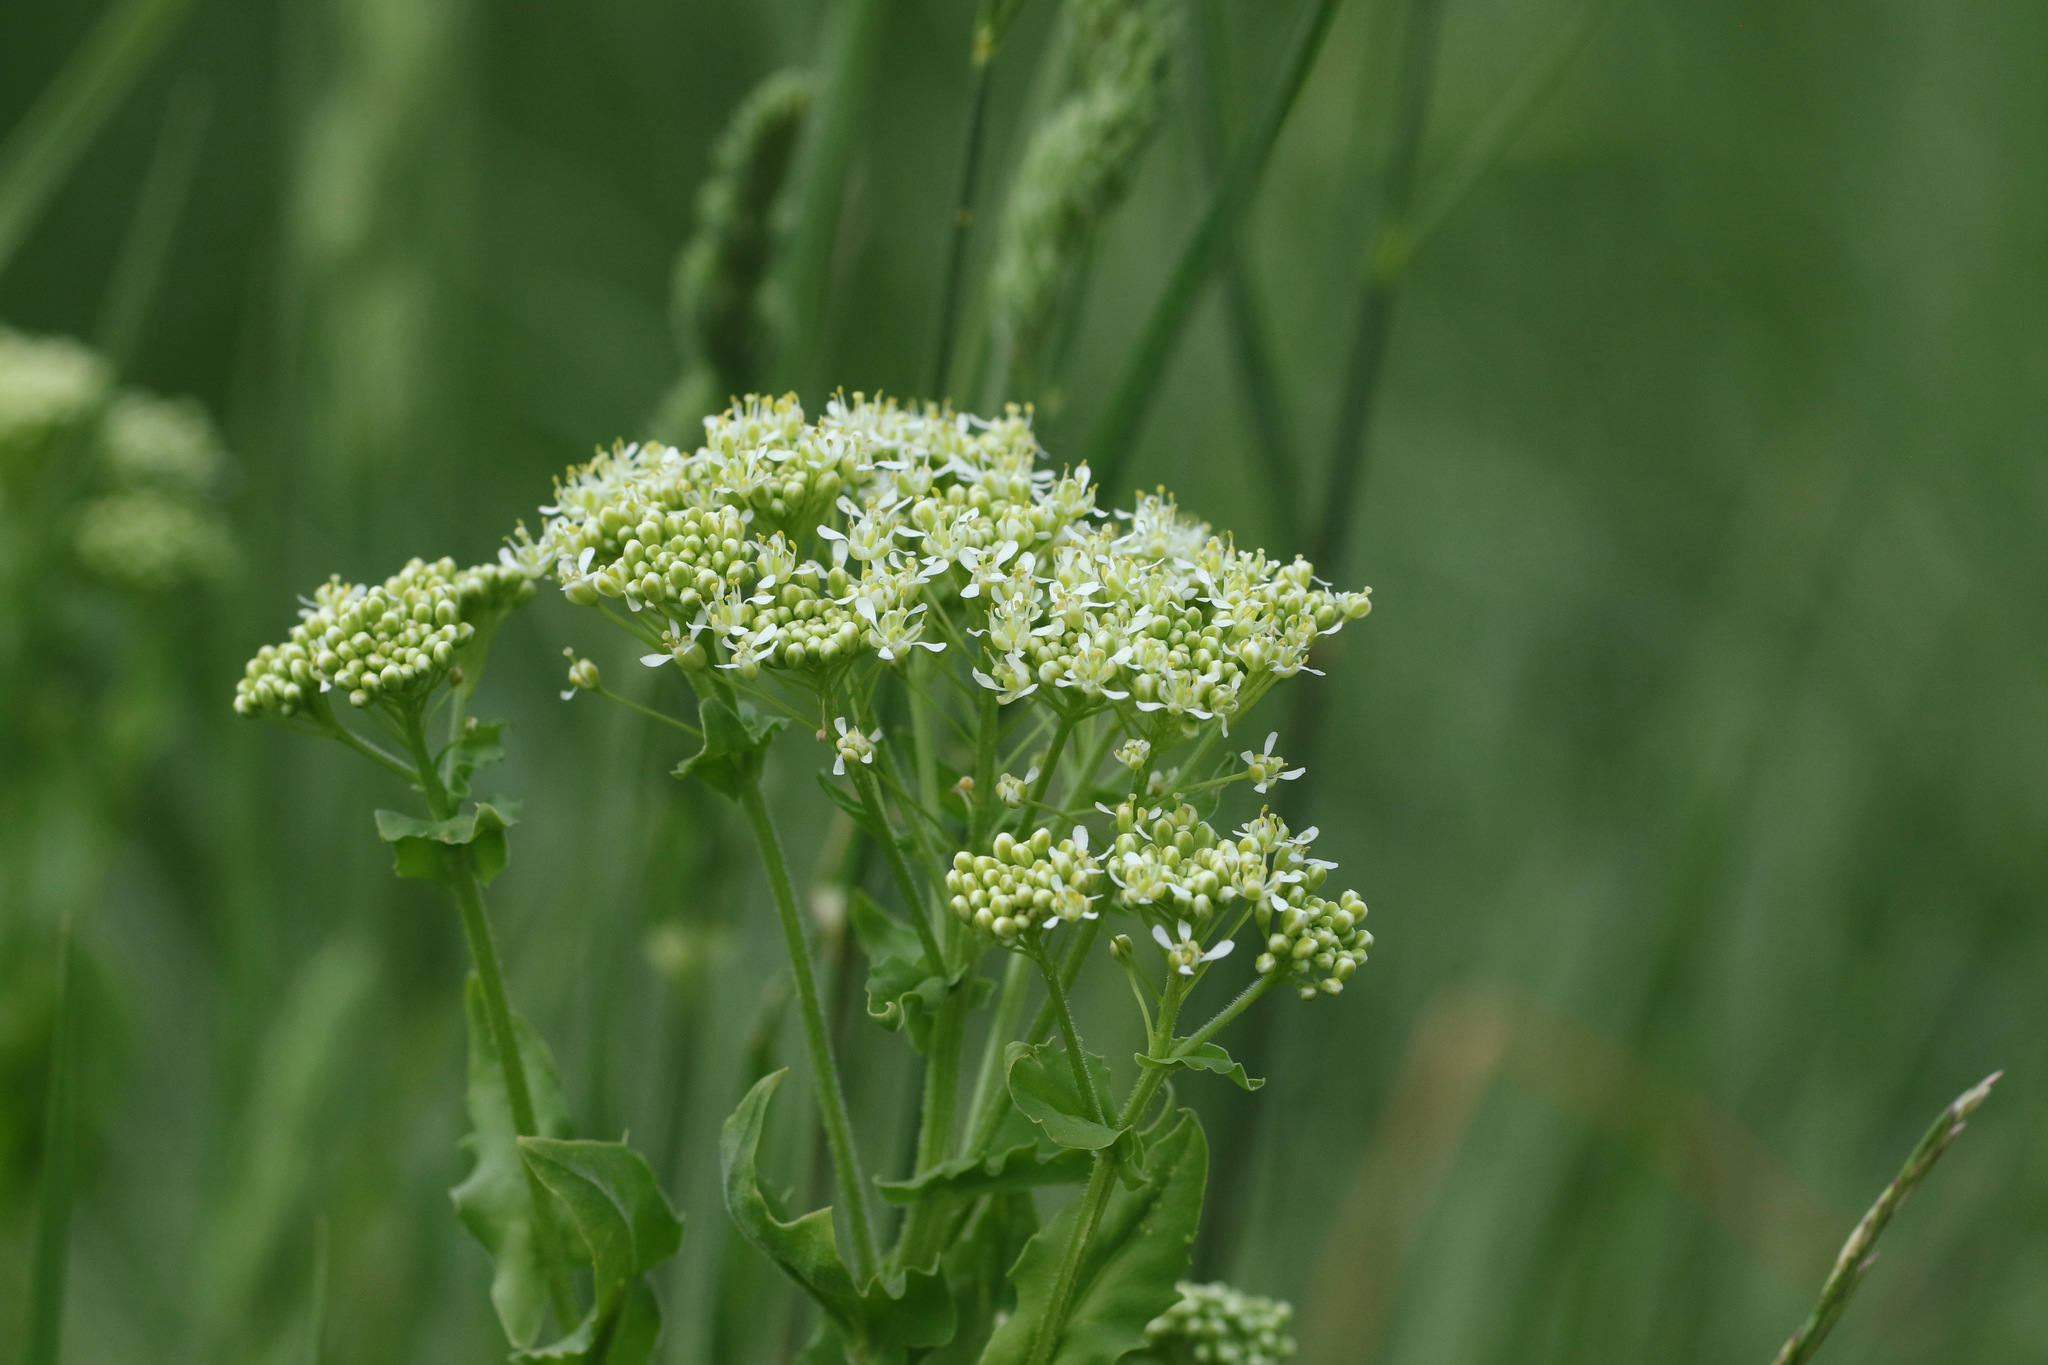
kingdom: Plantae
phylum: Tracheophyta
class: Magnoliopsida
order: Brassicales
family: Brassicaceae
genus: Lepidium
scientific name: Lepidium draba
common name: Hoary cress
